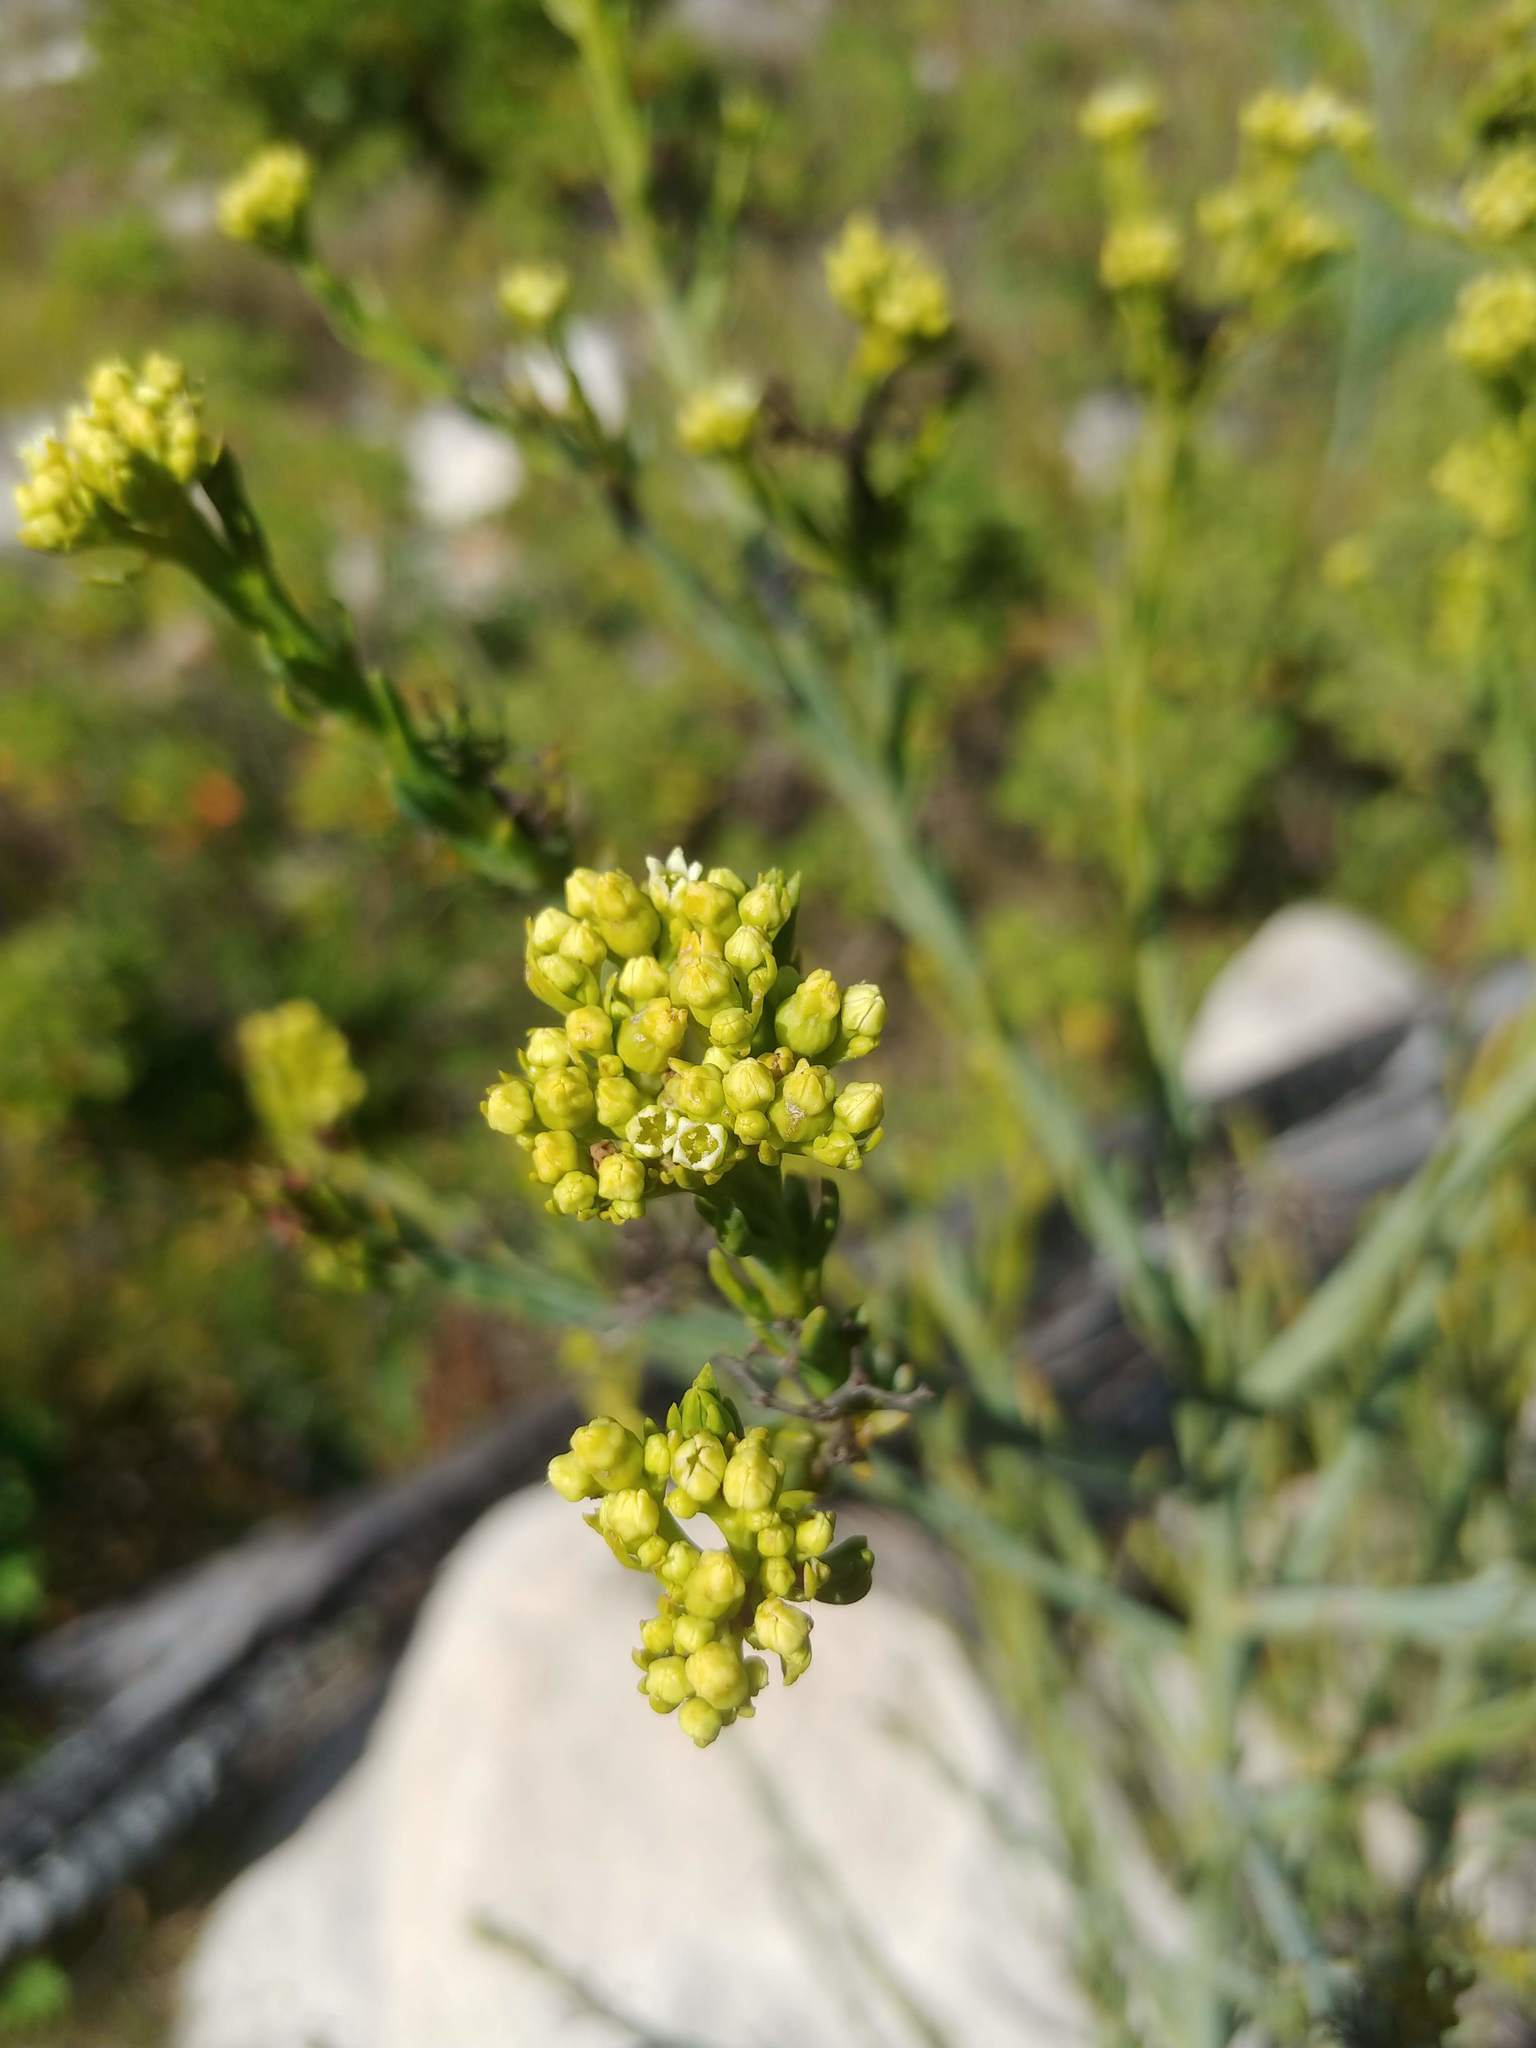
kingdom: Plantae
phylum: Tracheophyta
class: Magnoliopsida
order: Santalales
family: Thesiaceae
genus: Thesium
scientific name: Thesium strictum
